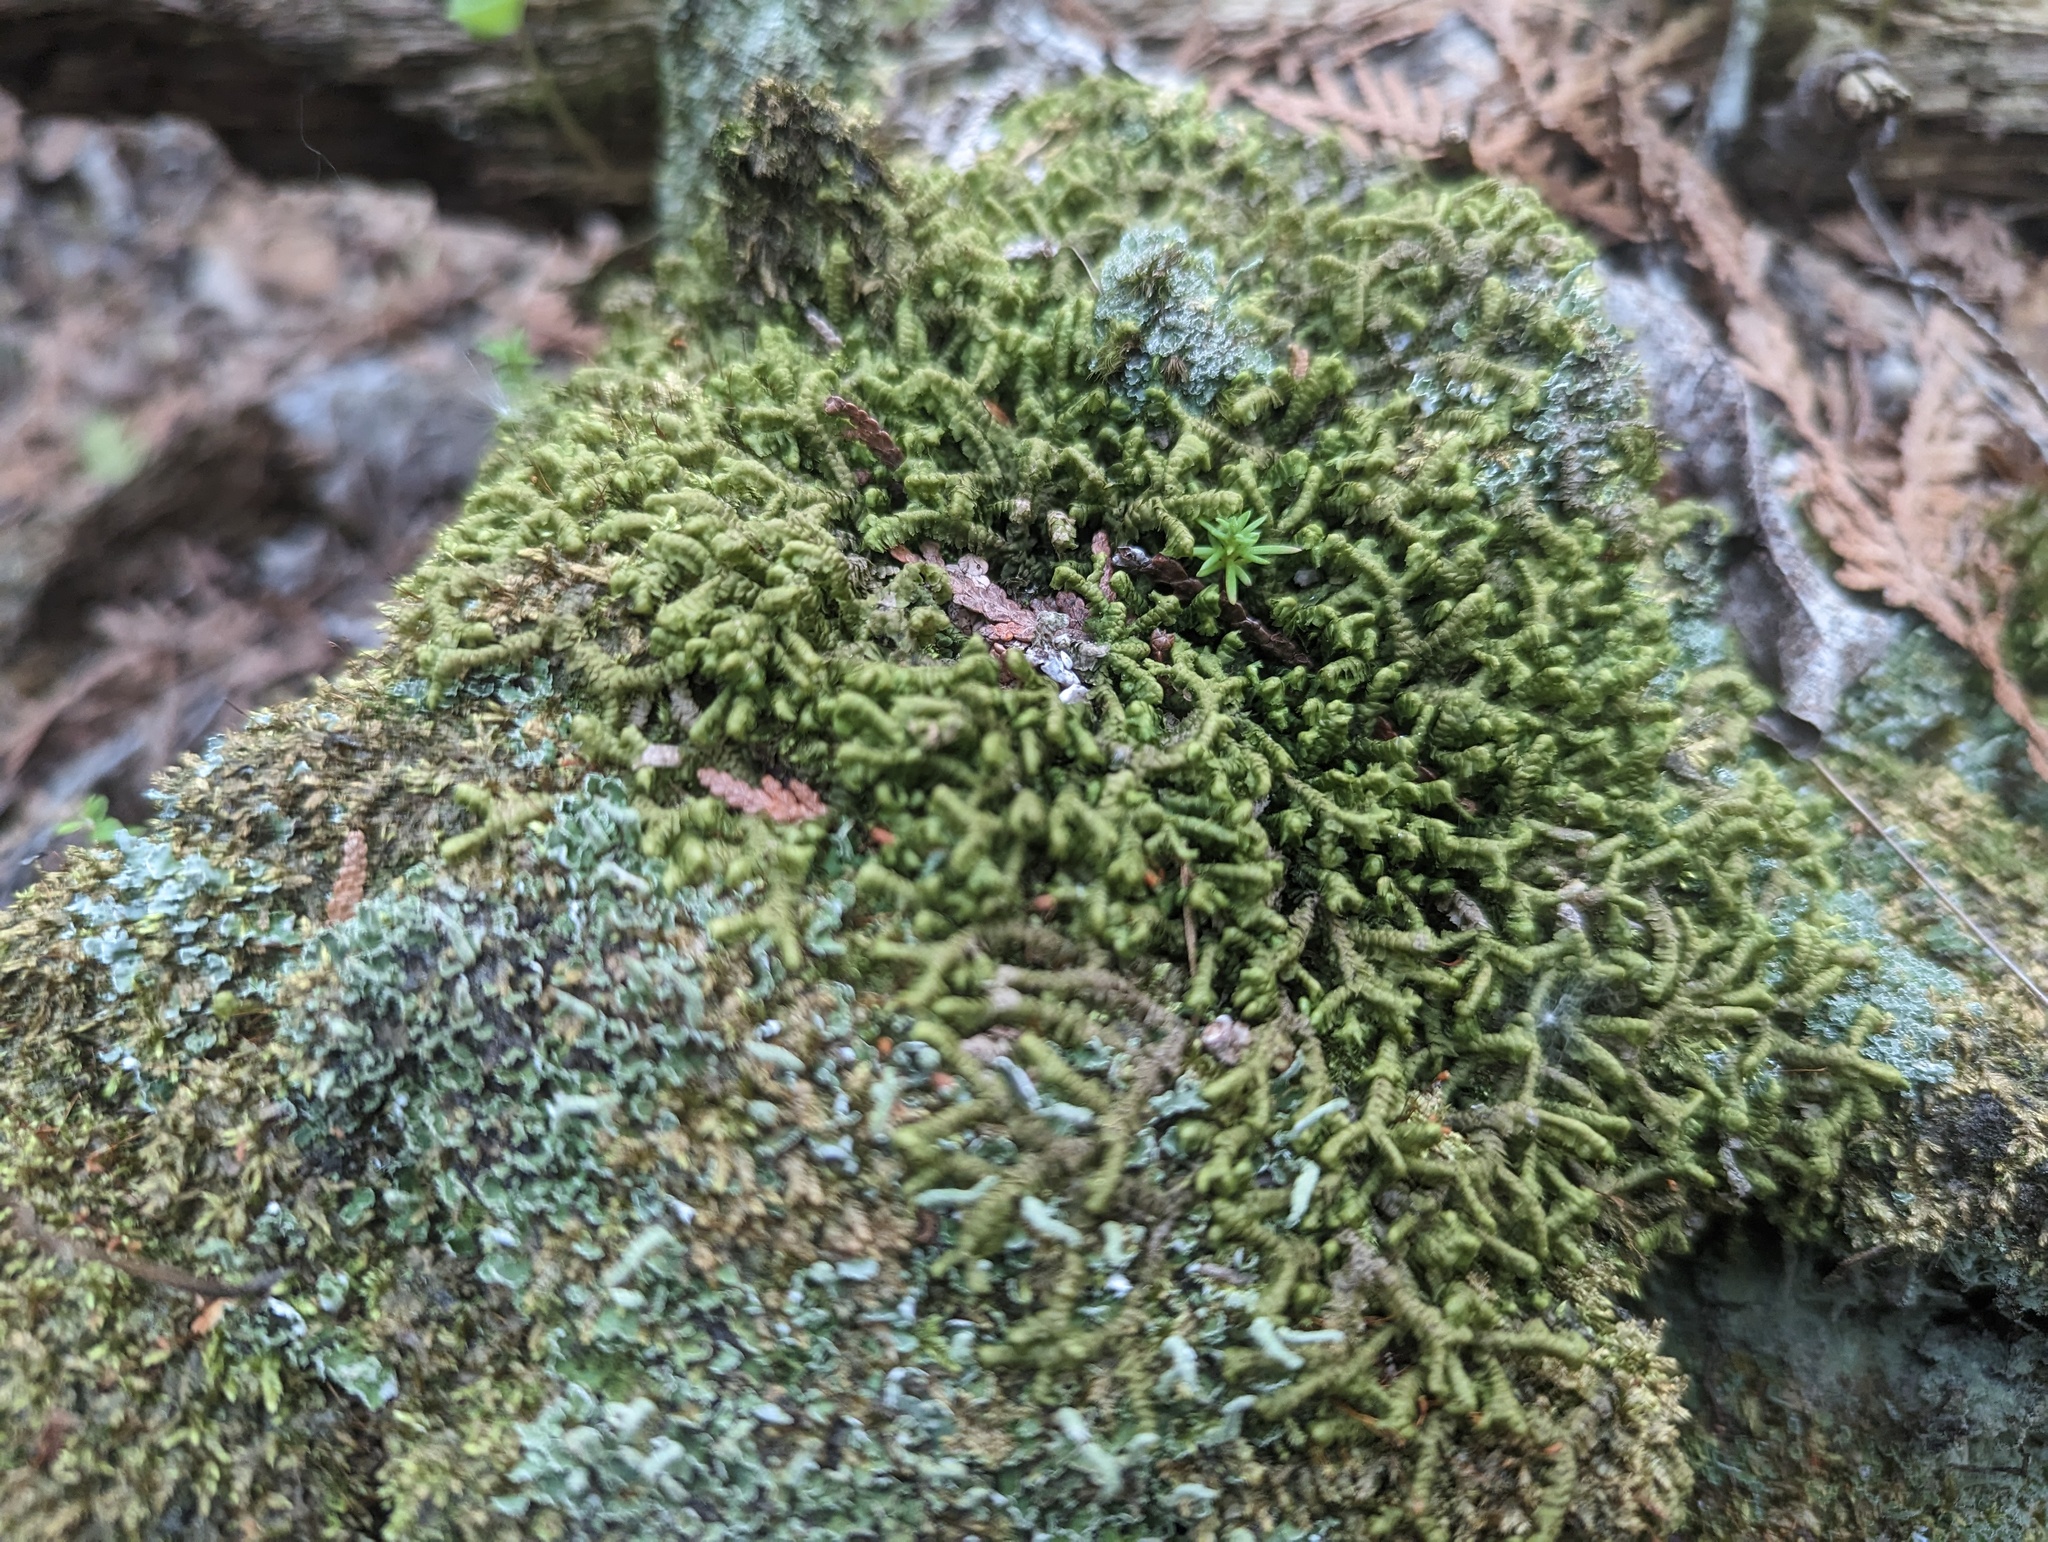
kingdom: Plantae
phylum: Marchantiophyta
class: Jungermanniopsida
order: Jungermanniales
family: Lepidoziaceae
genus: Bazzania
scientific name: Bazzania trilobata
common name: Three-lobed whipwort
